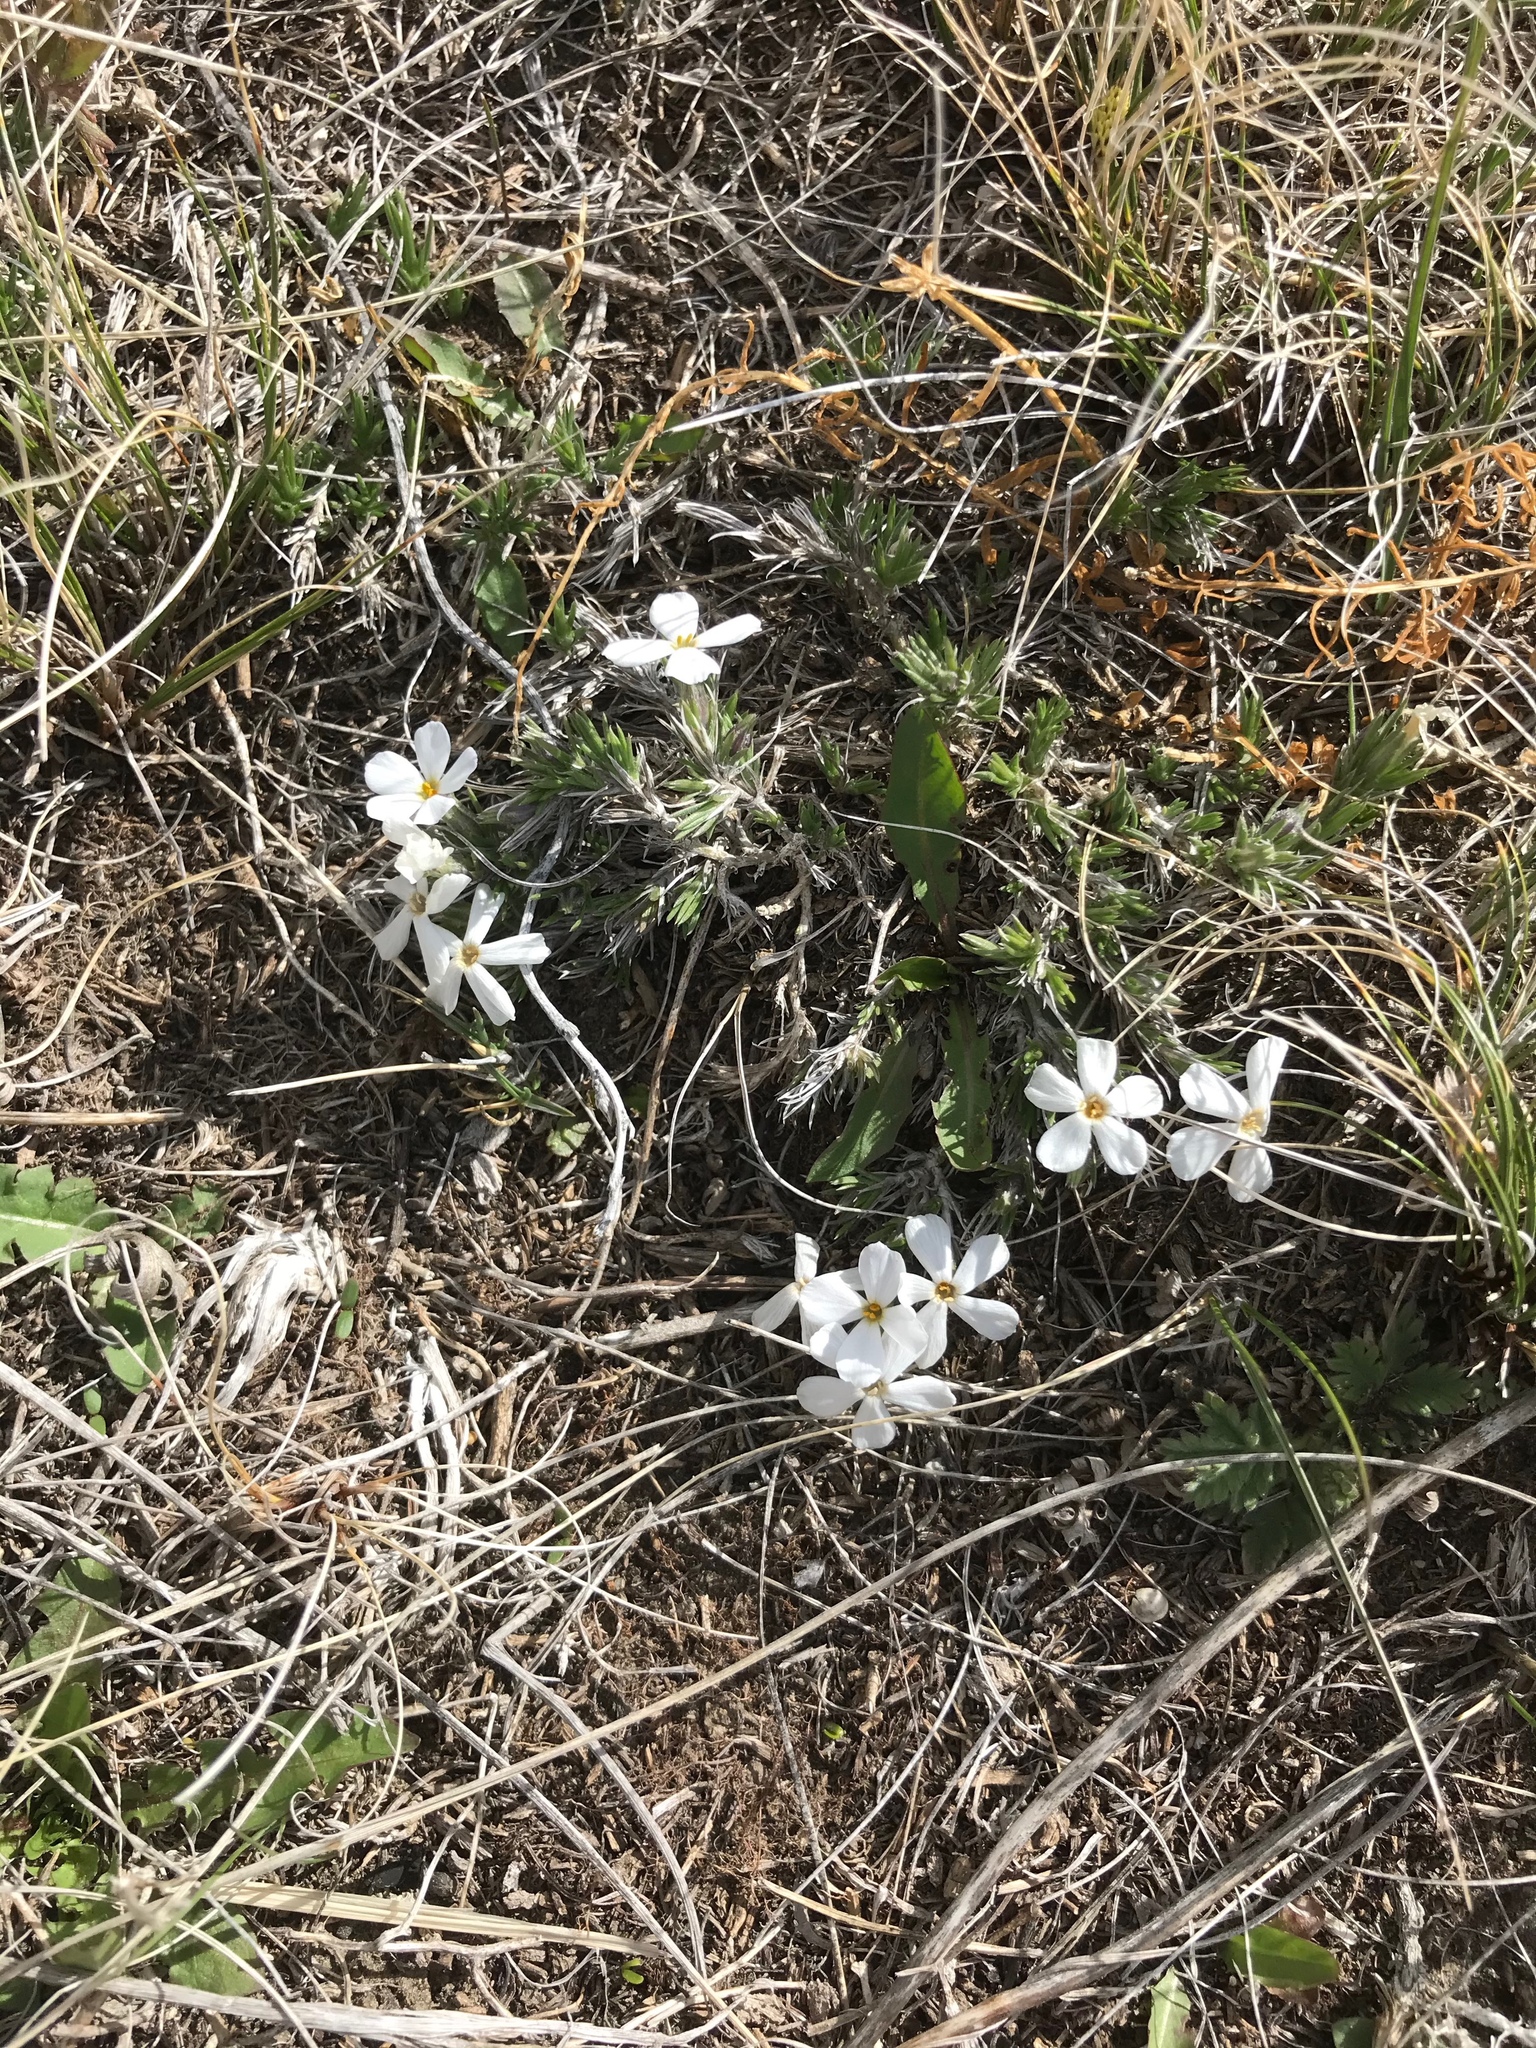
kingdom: Plantae
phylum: Tracheophyta
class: Magnoliopsida
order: Ericales
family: Polemoniaceae
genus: Phlox
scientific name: Phlox hoodii
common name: Moss phlox
